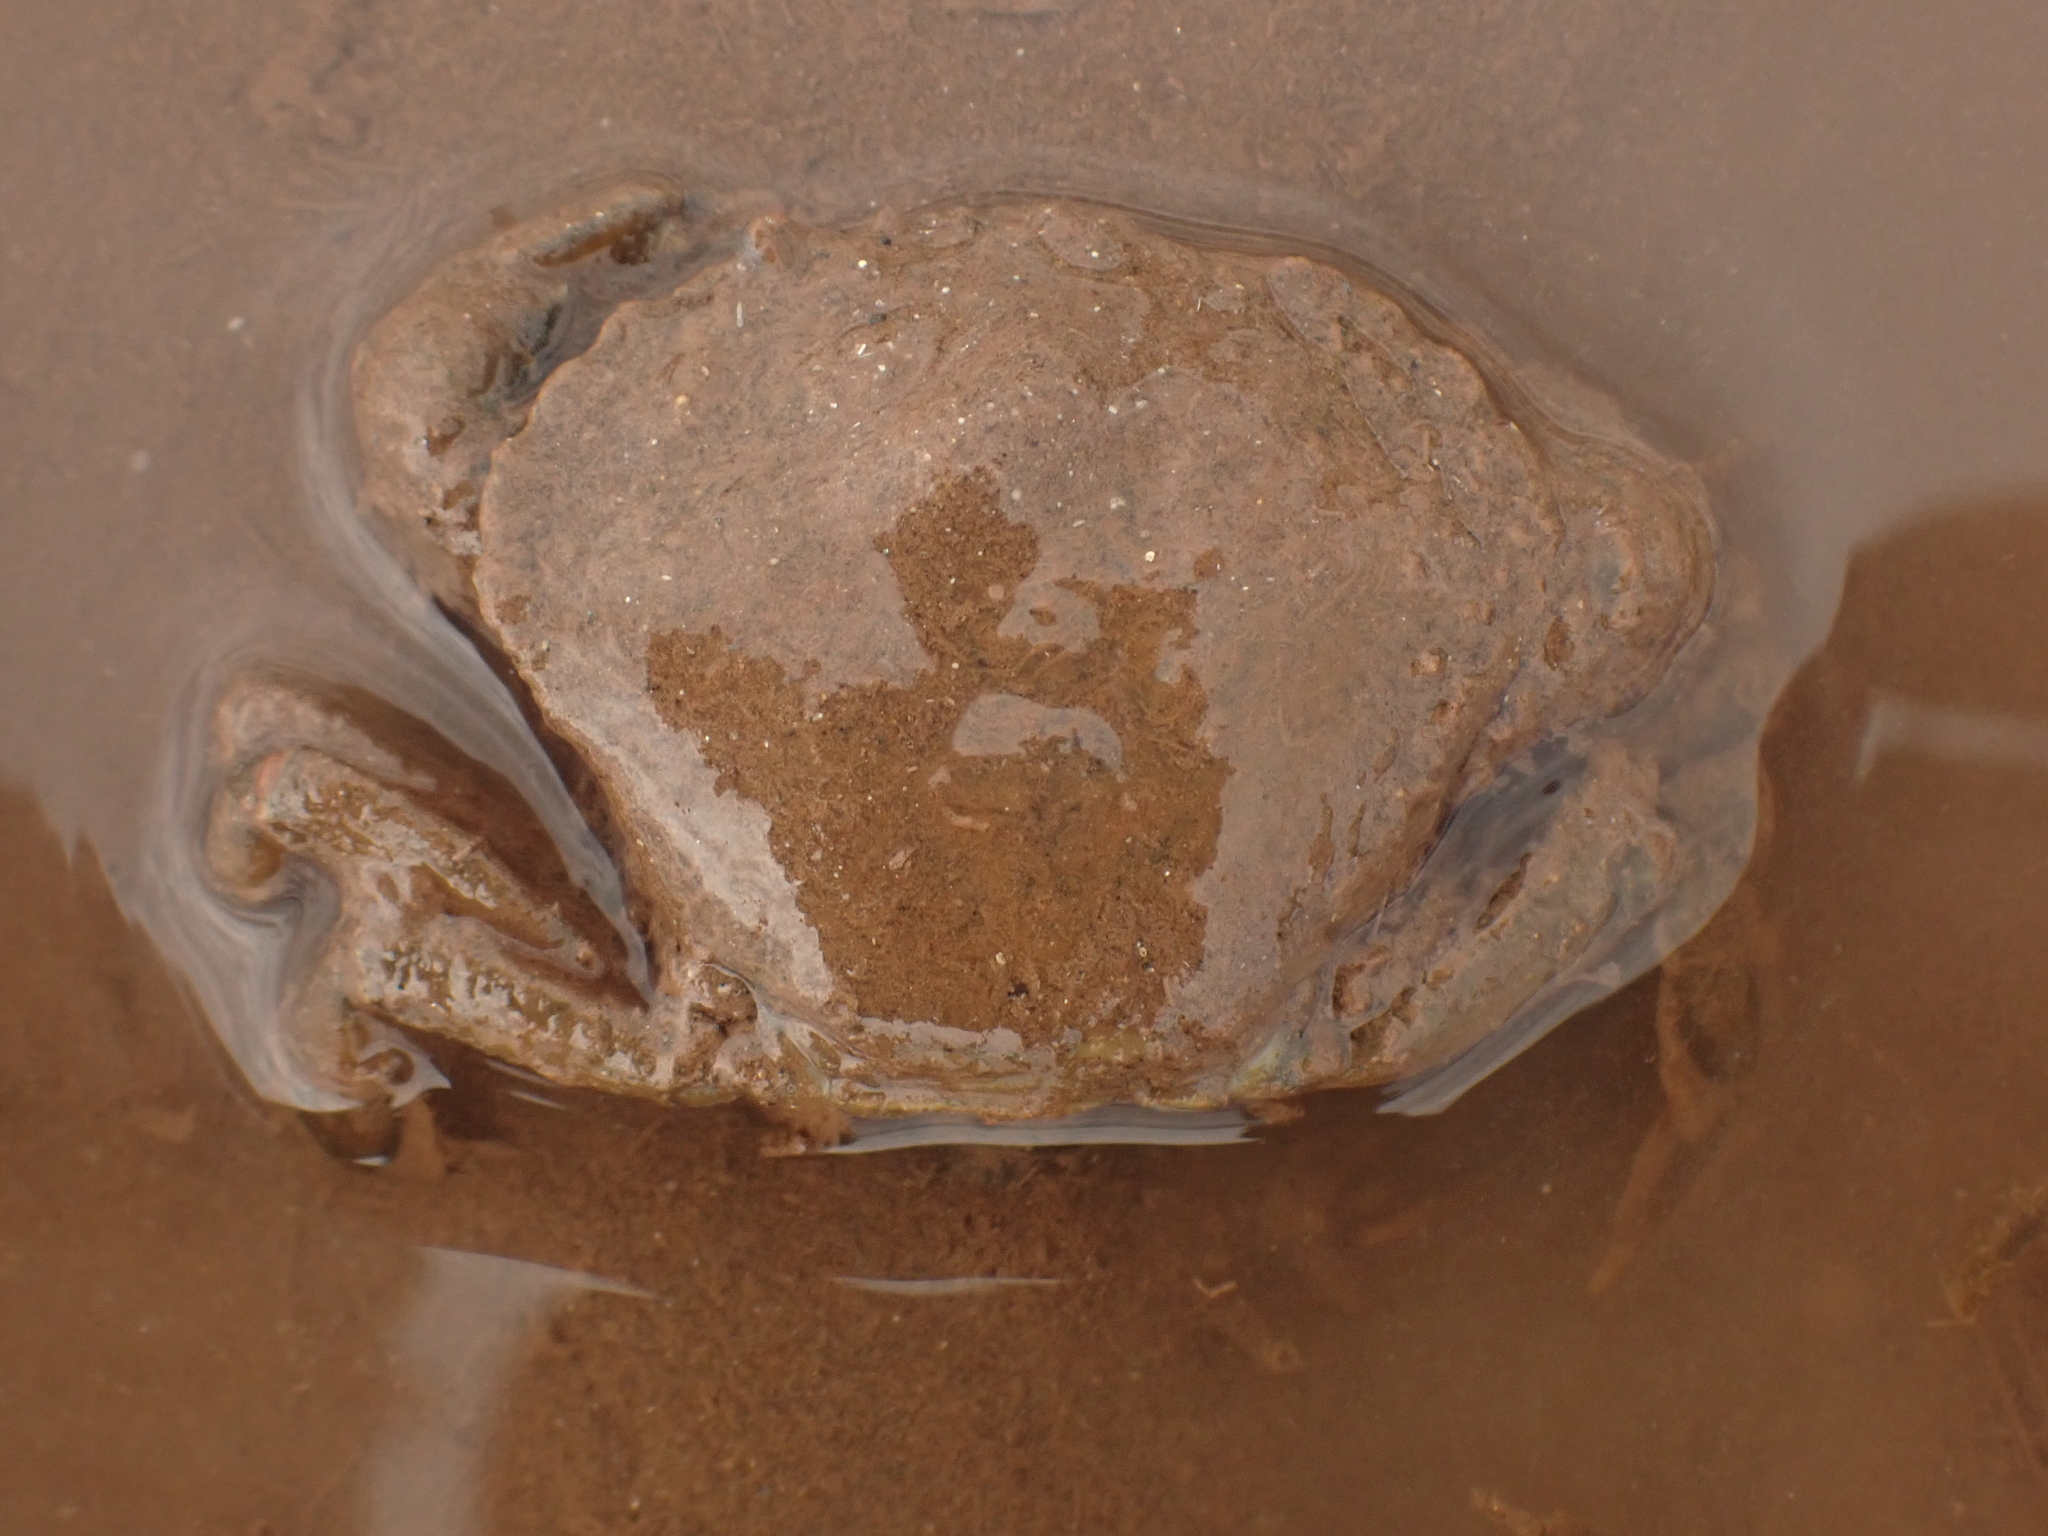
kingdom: Animalia
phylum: Arthropoda
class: Malacostraca
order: Decapoda
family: Carcinidae
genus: Carcinus
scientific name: Carcinus maenas
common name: European green crab
